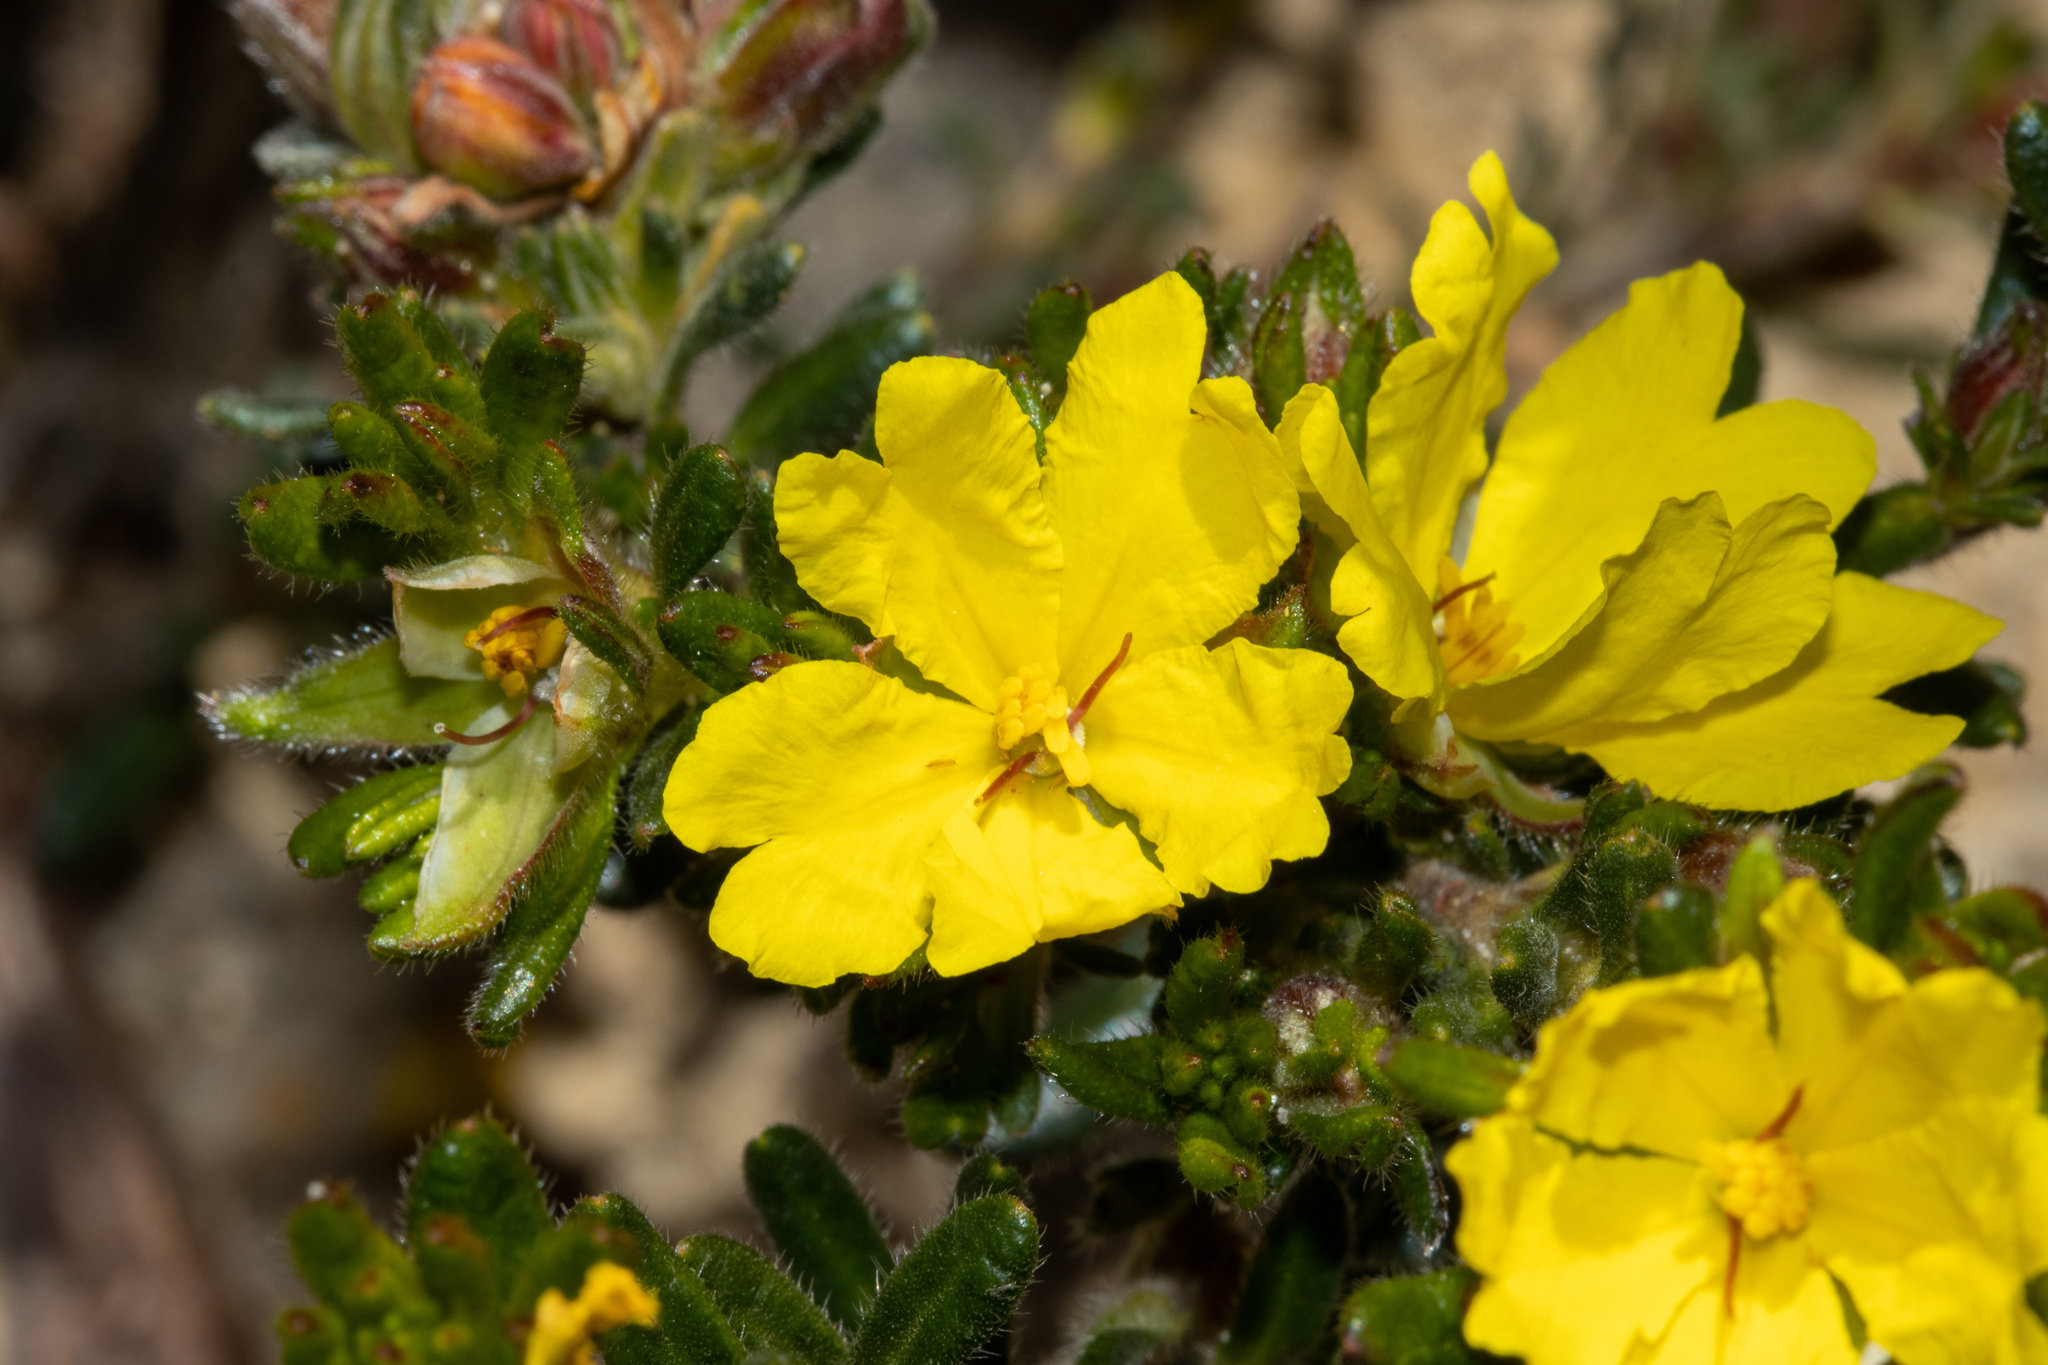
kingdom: Plantae
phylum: Tracheophyta
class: Magnoliopsida
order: Dilleniales
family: Dilleniaceae
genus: Hibbertia
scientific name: Hibbertia sericea
